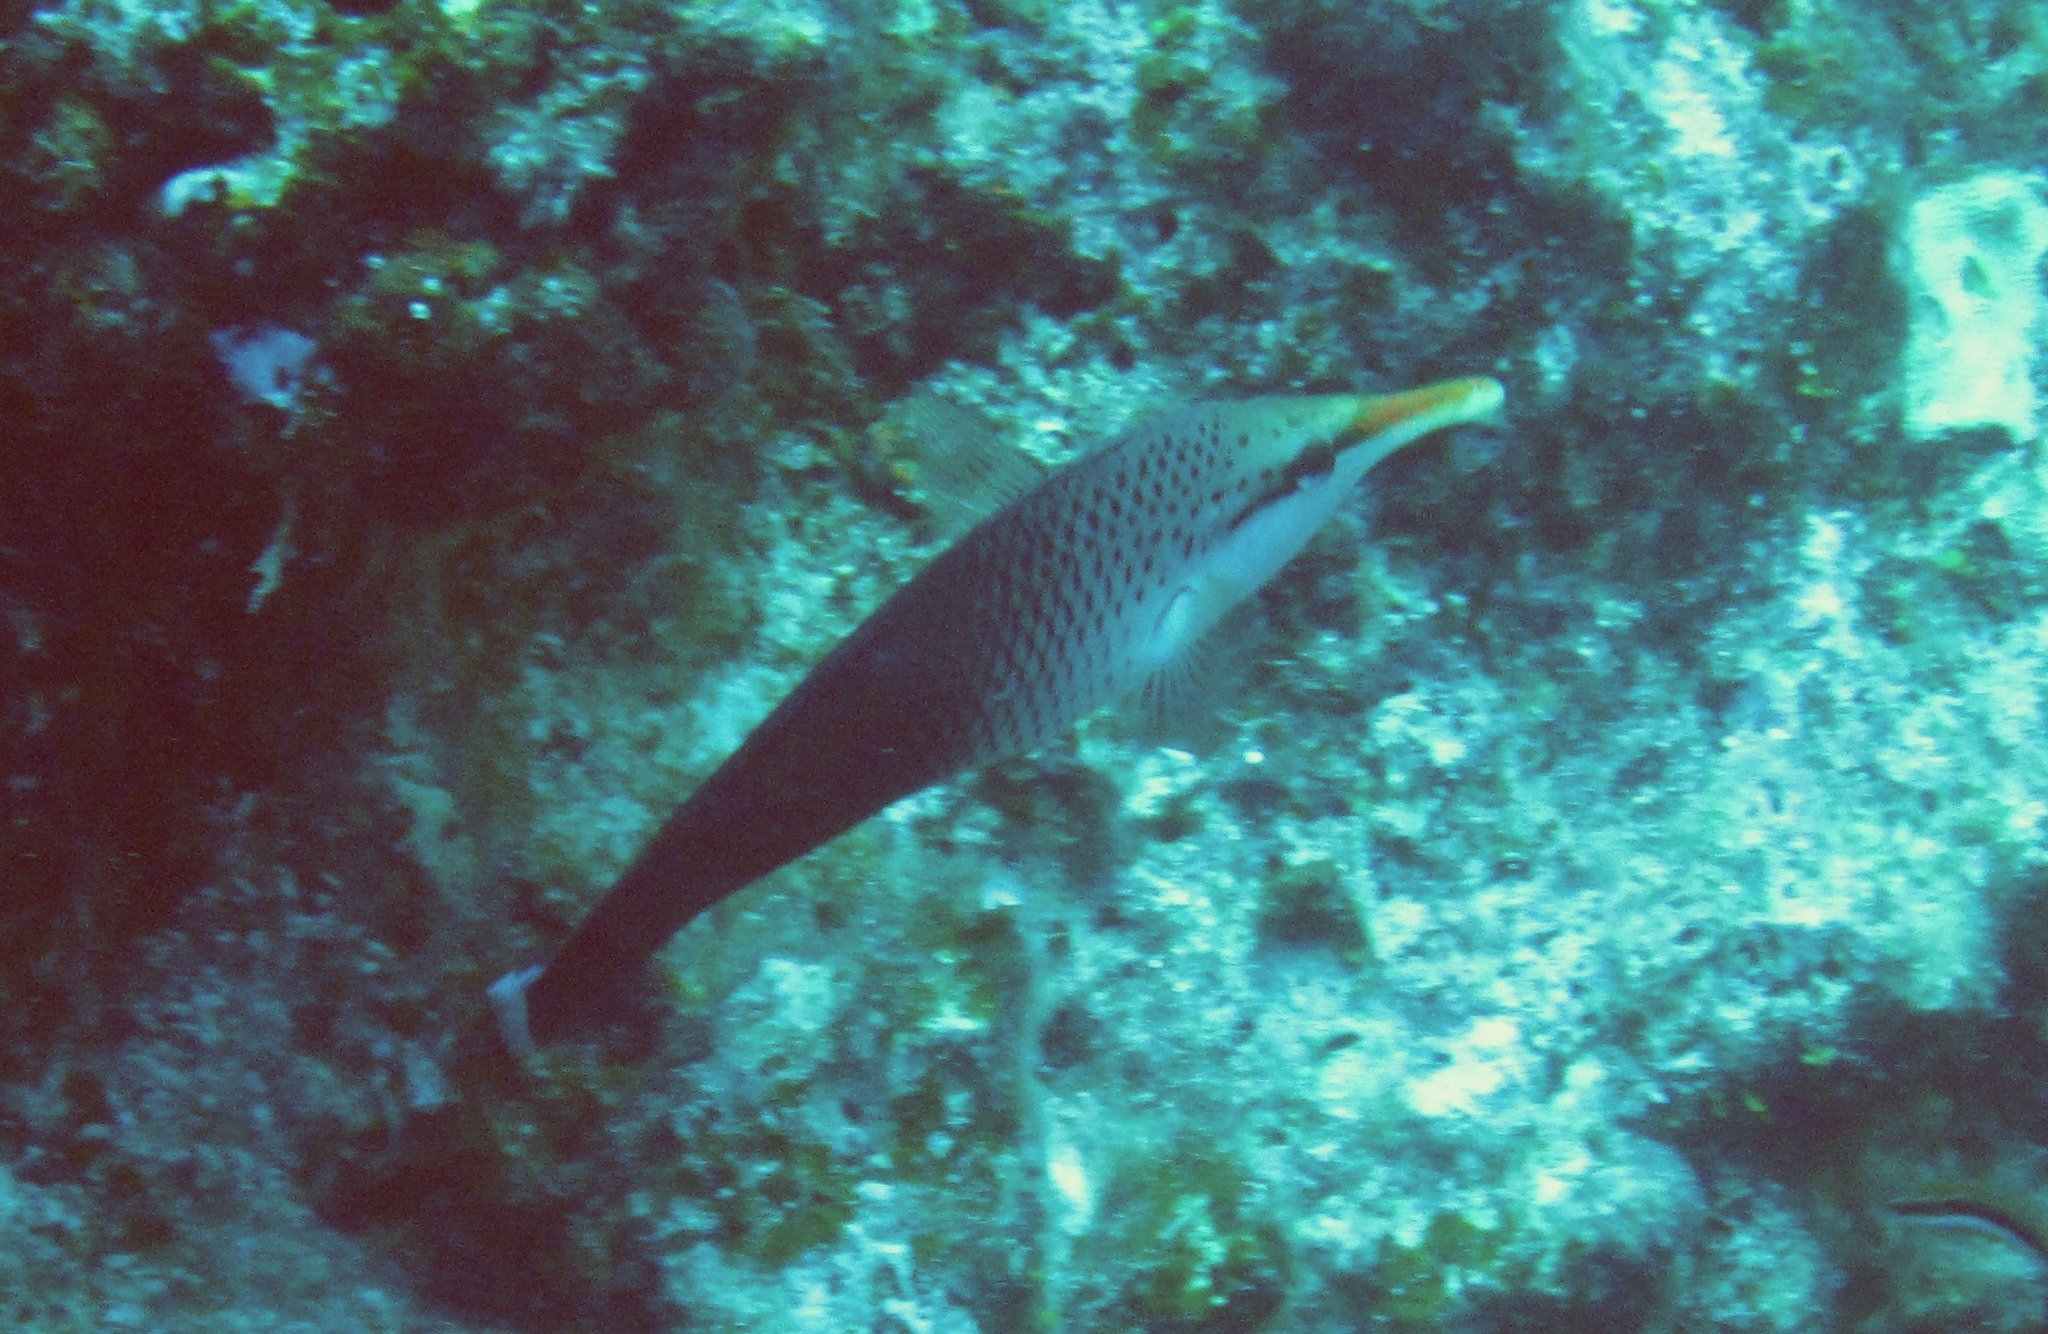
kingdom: Animalia
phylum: Chordata
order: Perciformes
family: Labridae
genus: Gomphosus
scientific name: Gomphosus varius
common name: Bird wrasse
